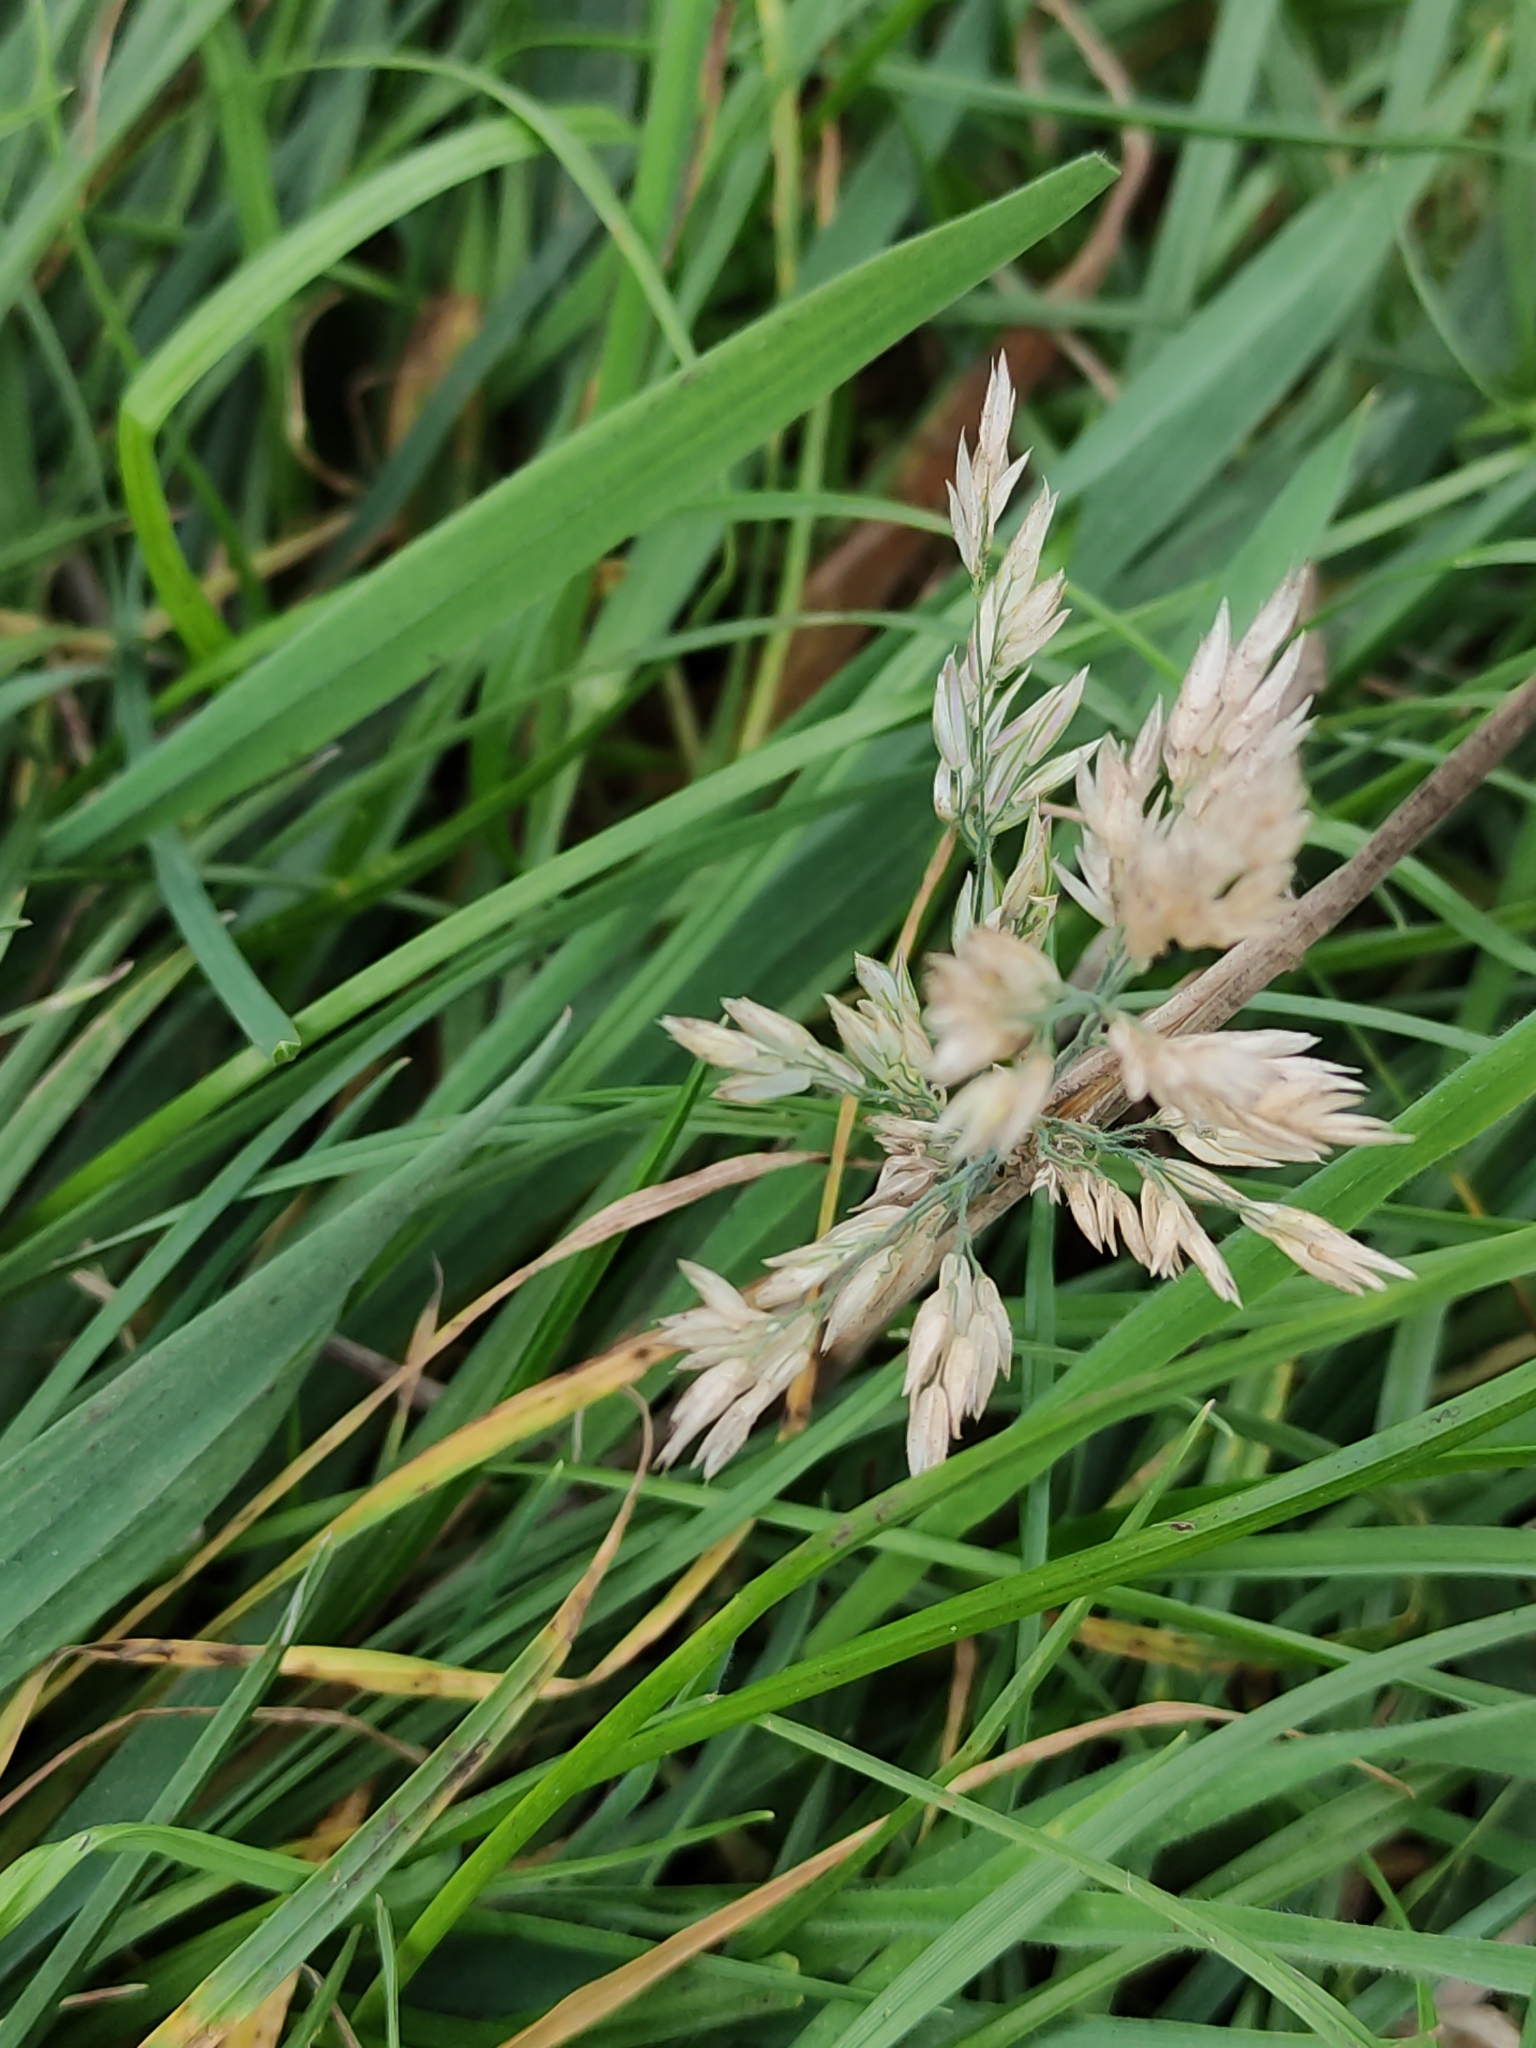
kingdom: Plantae
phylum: Tracheophyta
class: Liliopsida
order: Poales
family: Poaceae
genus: Holcus
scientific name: Holcus lanatus
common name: Yorkshire-fog
